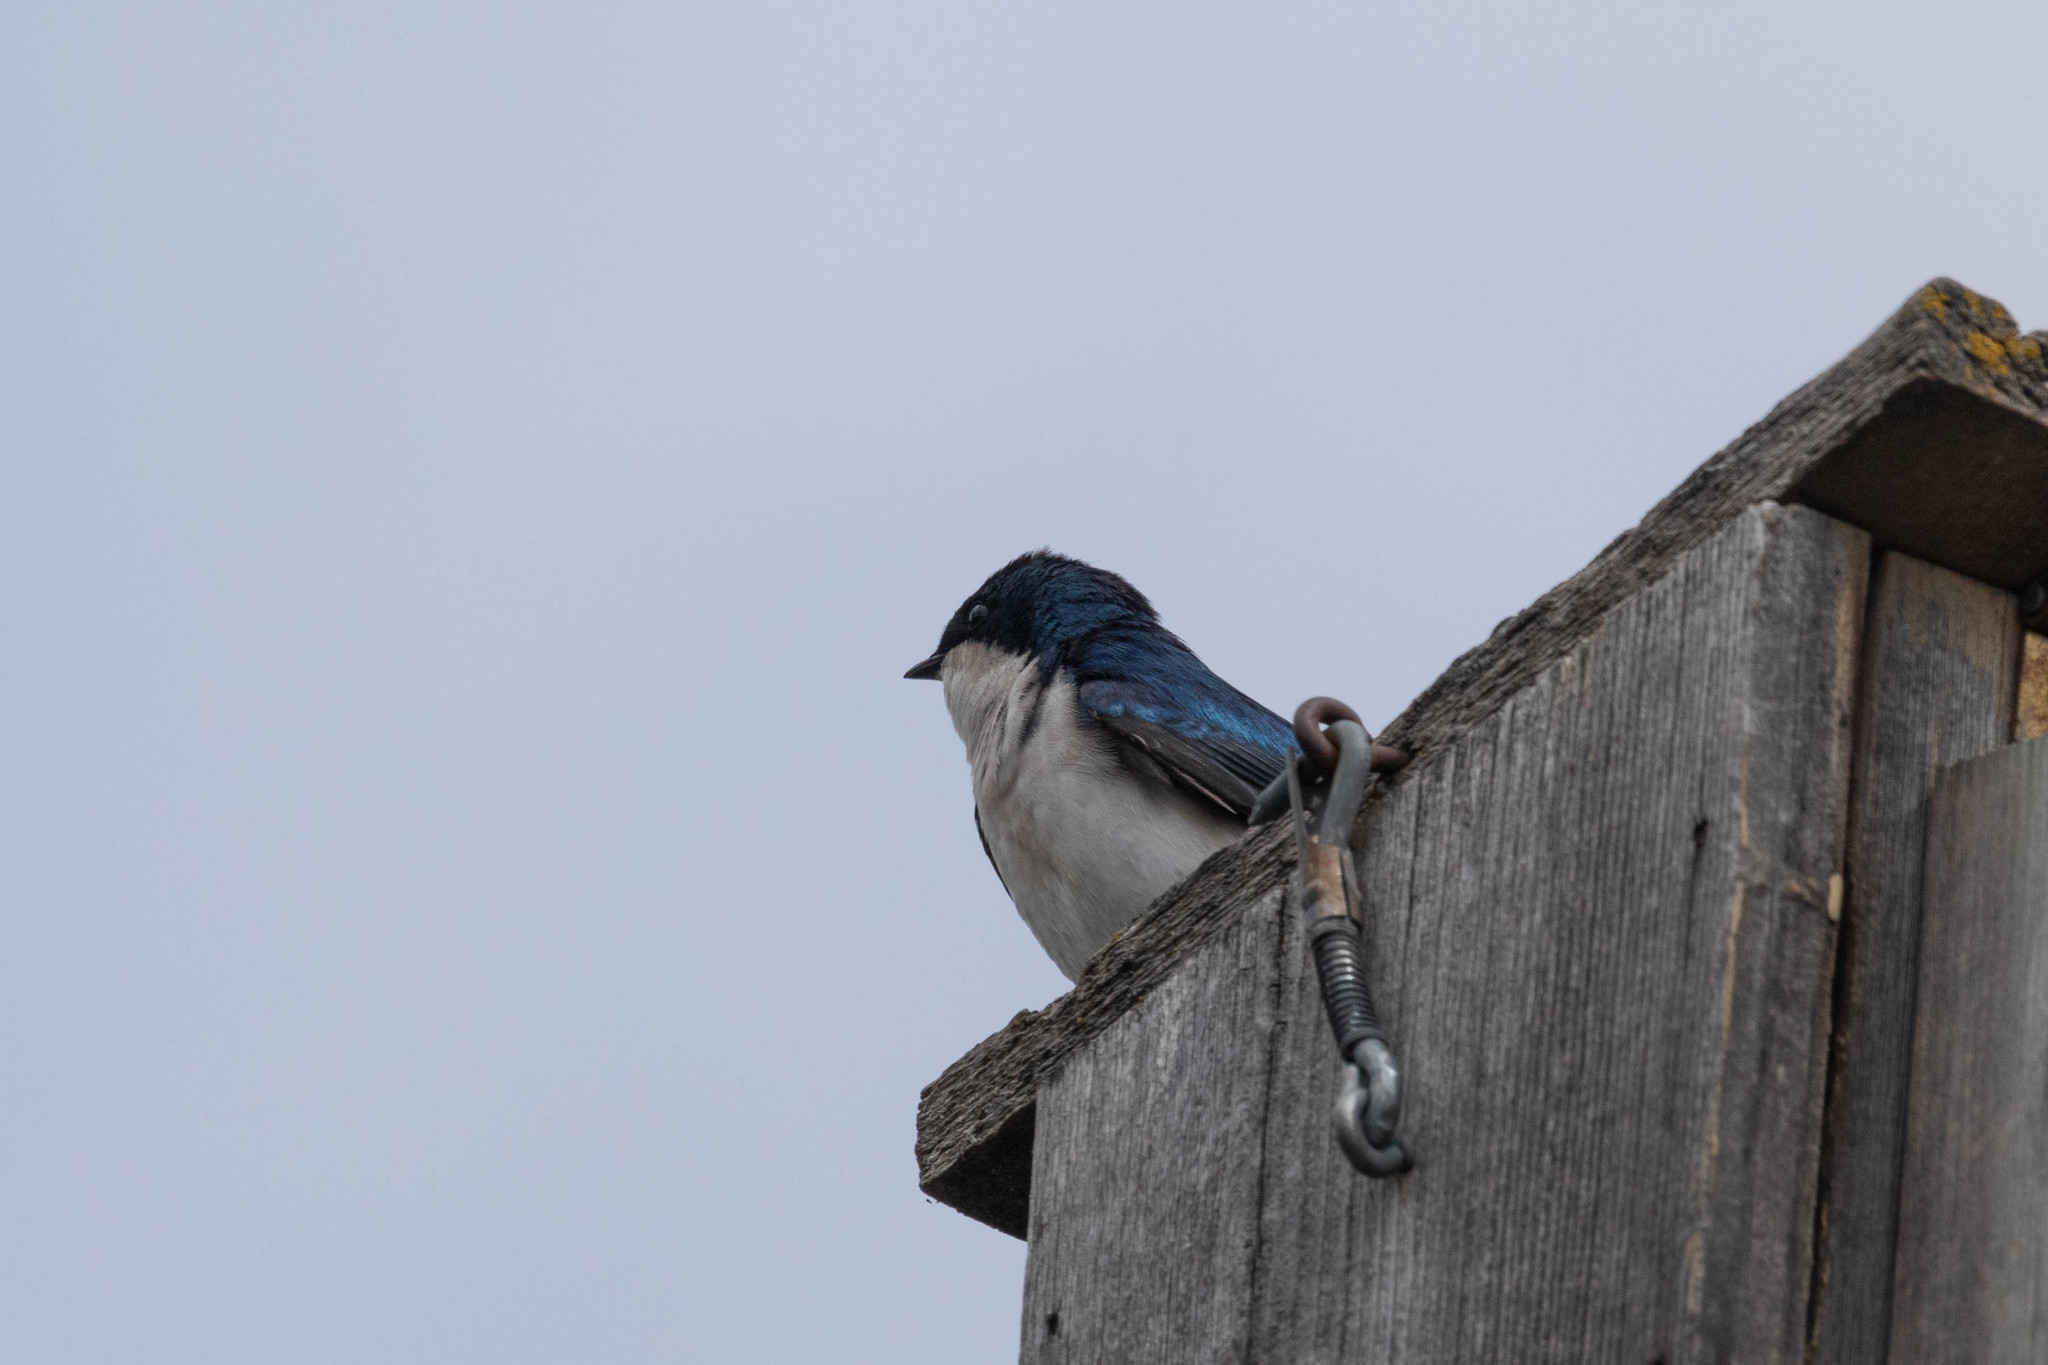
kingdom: Animalia
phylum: Chordata
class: Aves
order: Passeriformes
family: Hirundinidae
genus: Tachycineta
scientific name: Tachycineta bicolor
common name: Tree swallow
